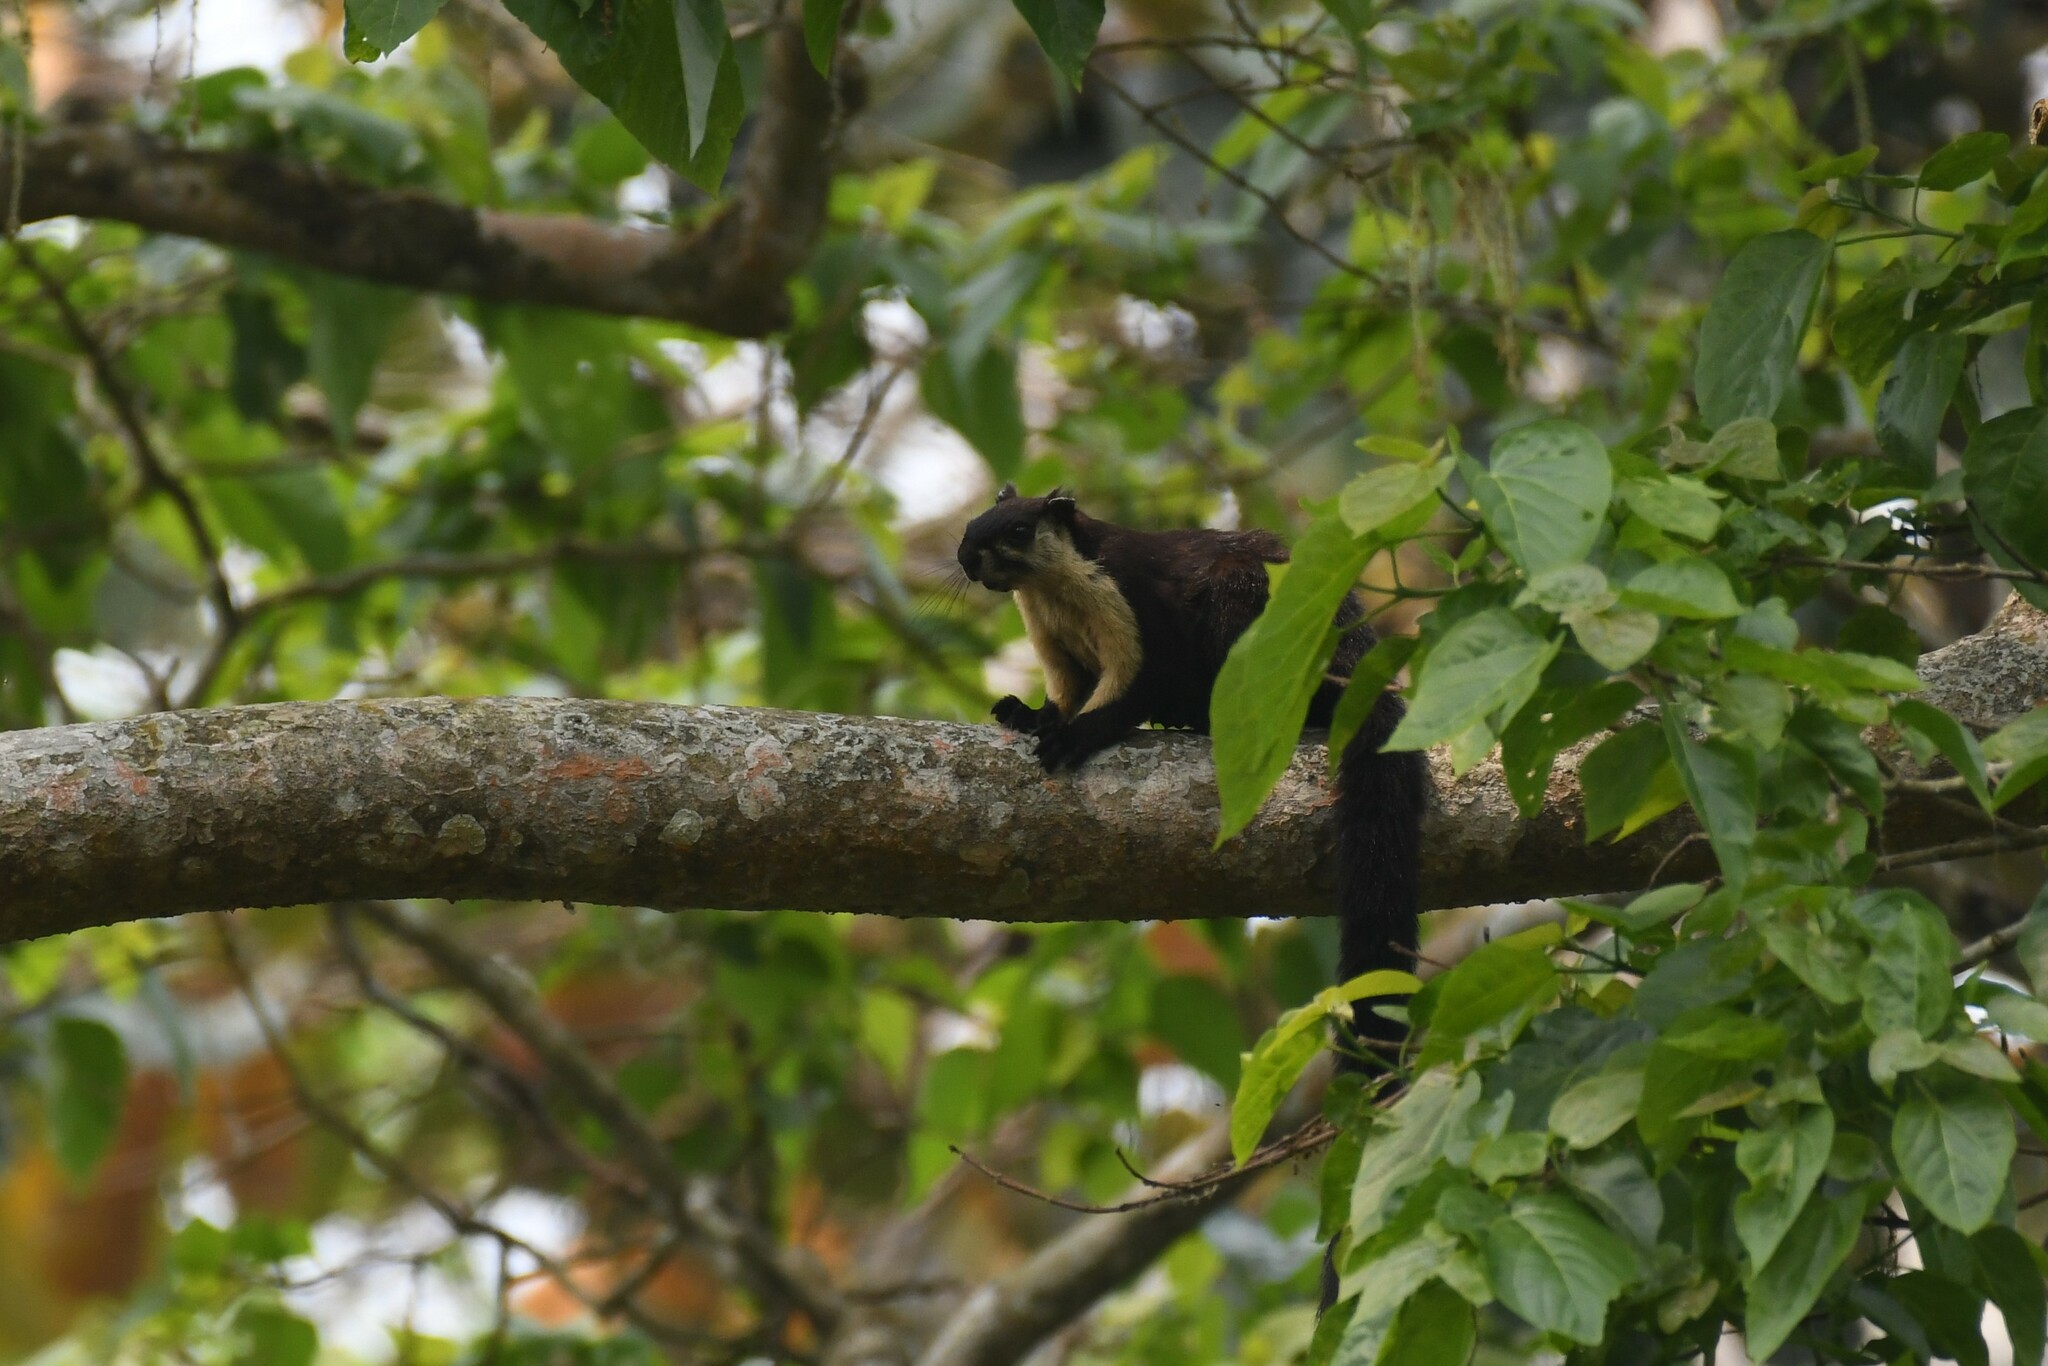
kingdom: Animalia
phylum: Chordata
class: Mammalia
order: Rodentia
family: Sciuridae
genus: Ratufa
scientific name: Ratufa bicolor
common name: Black giant squirrel
